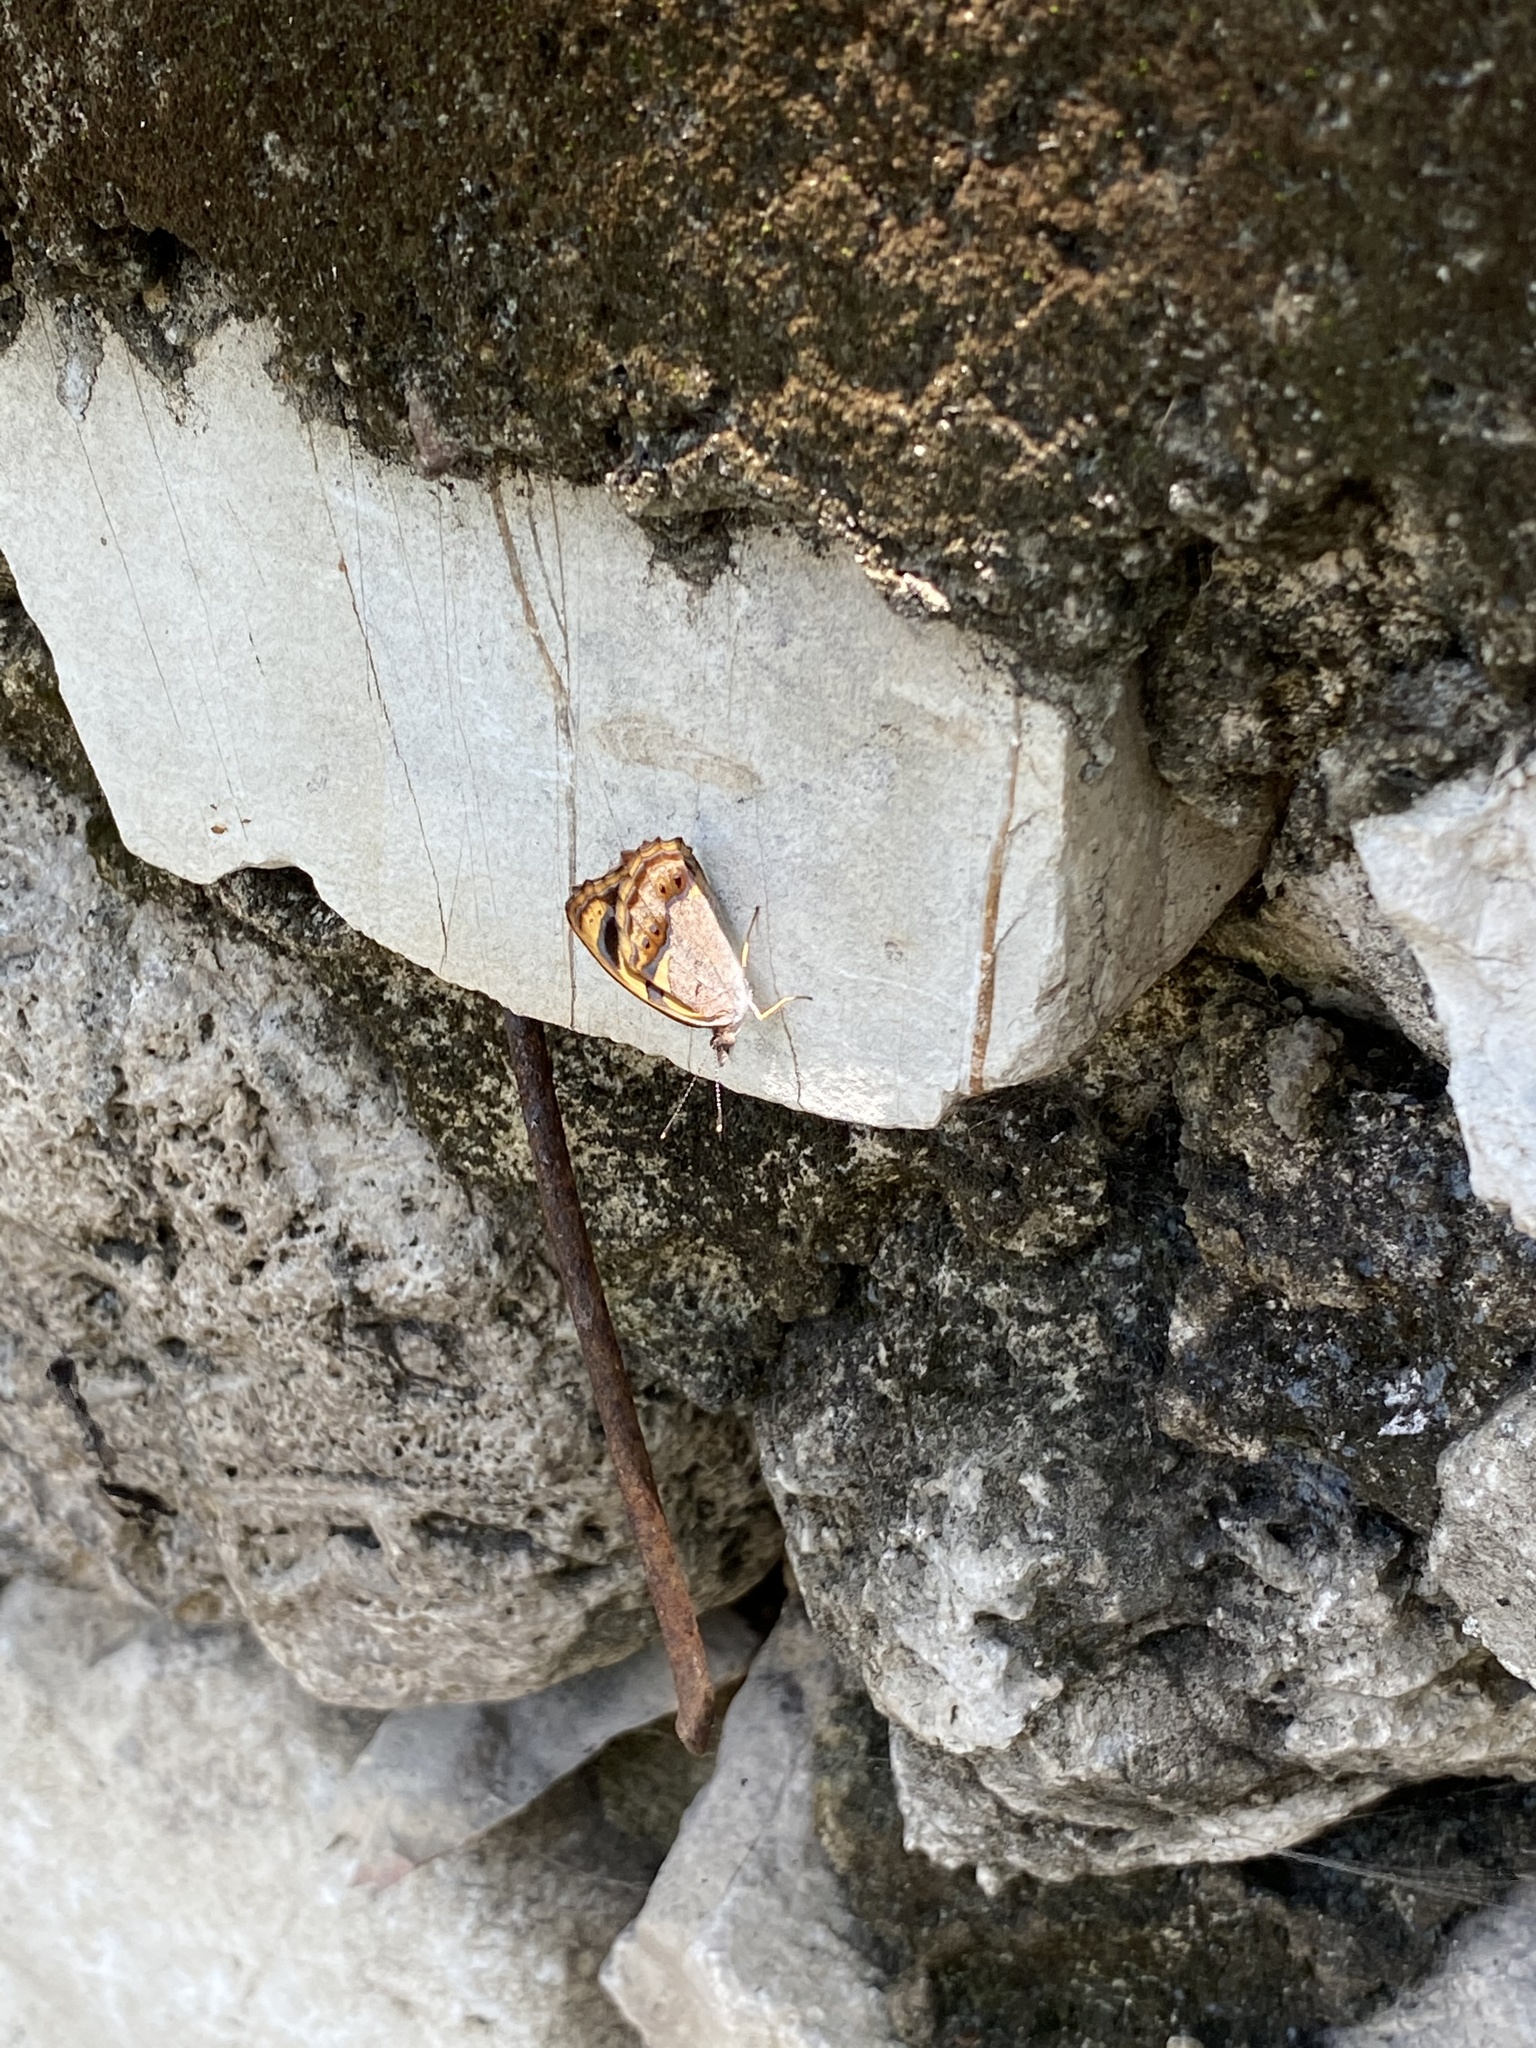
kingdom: Animalia
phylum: Arthropoda
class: Insecta
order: Lepidoptera
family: Nymphalidae
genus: Bolboneura
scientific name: Bolboneura sylphis
